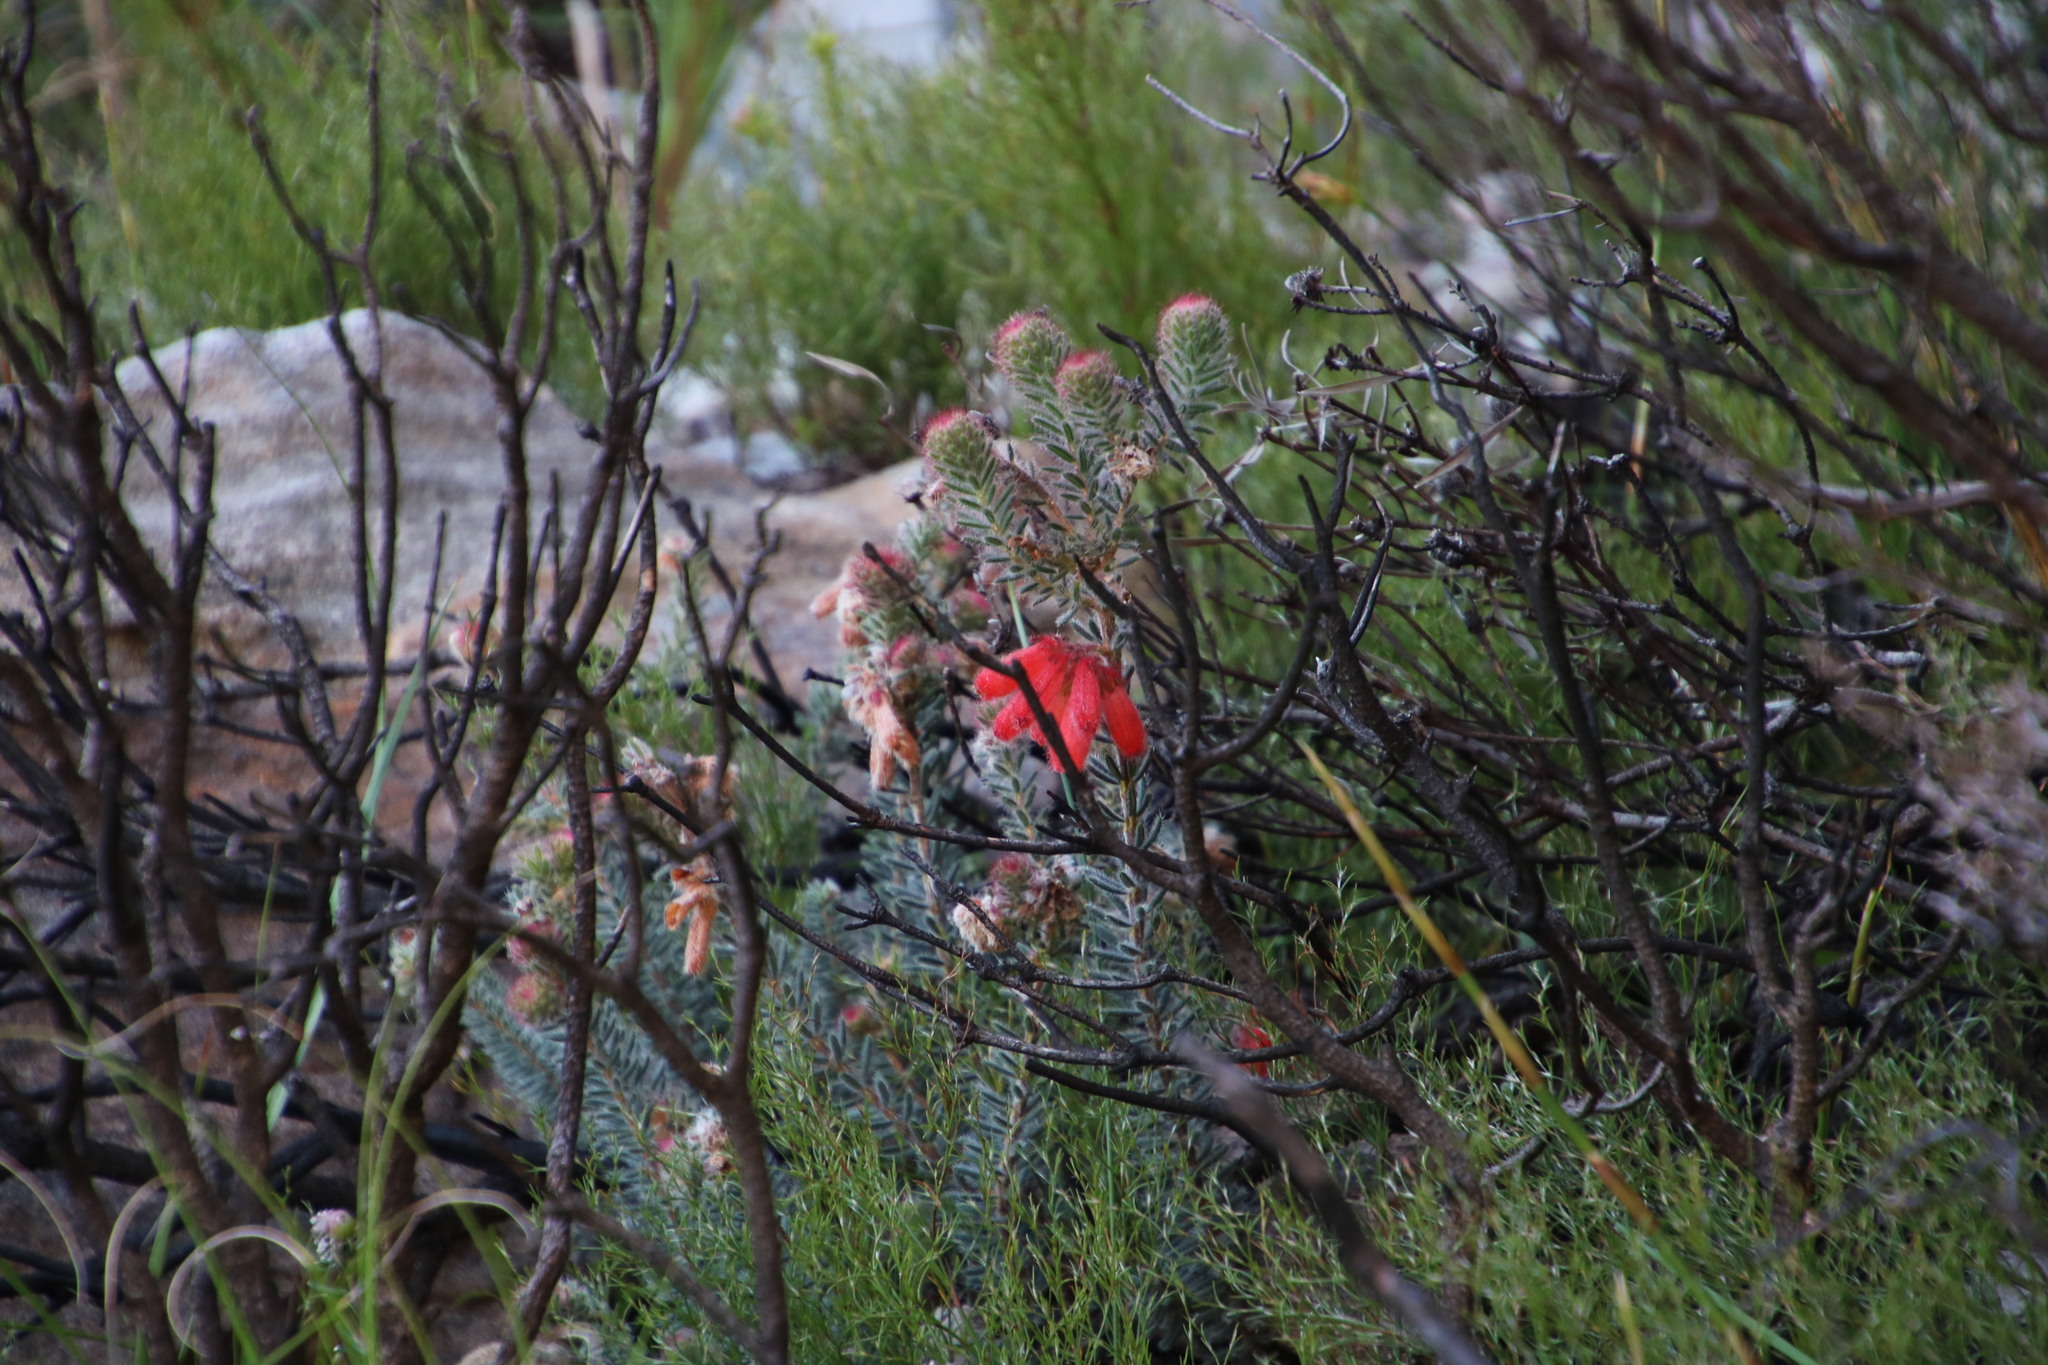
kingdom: Plantae
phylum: Tracheophyta
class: Magnoliopsida
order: Ericales
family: Ericaceae
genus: Erica
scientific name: Erica cerinthoides
